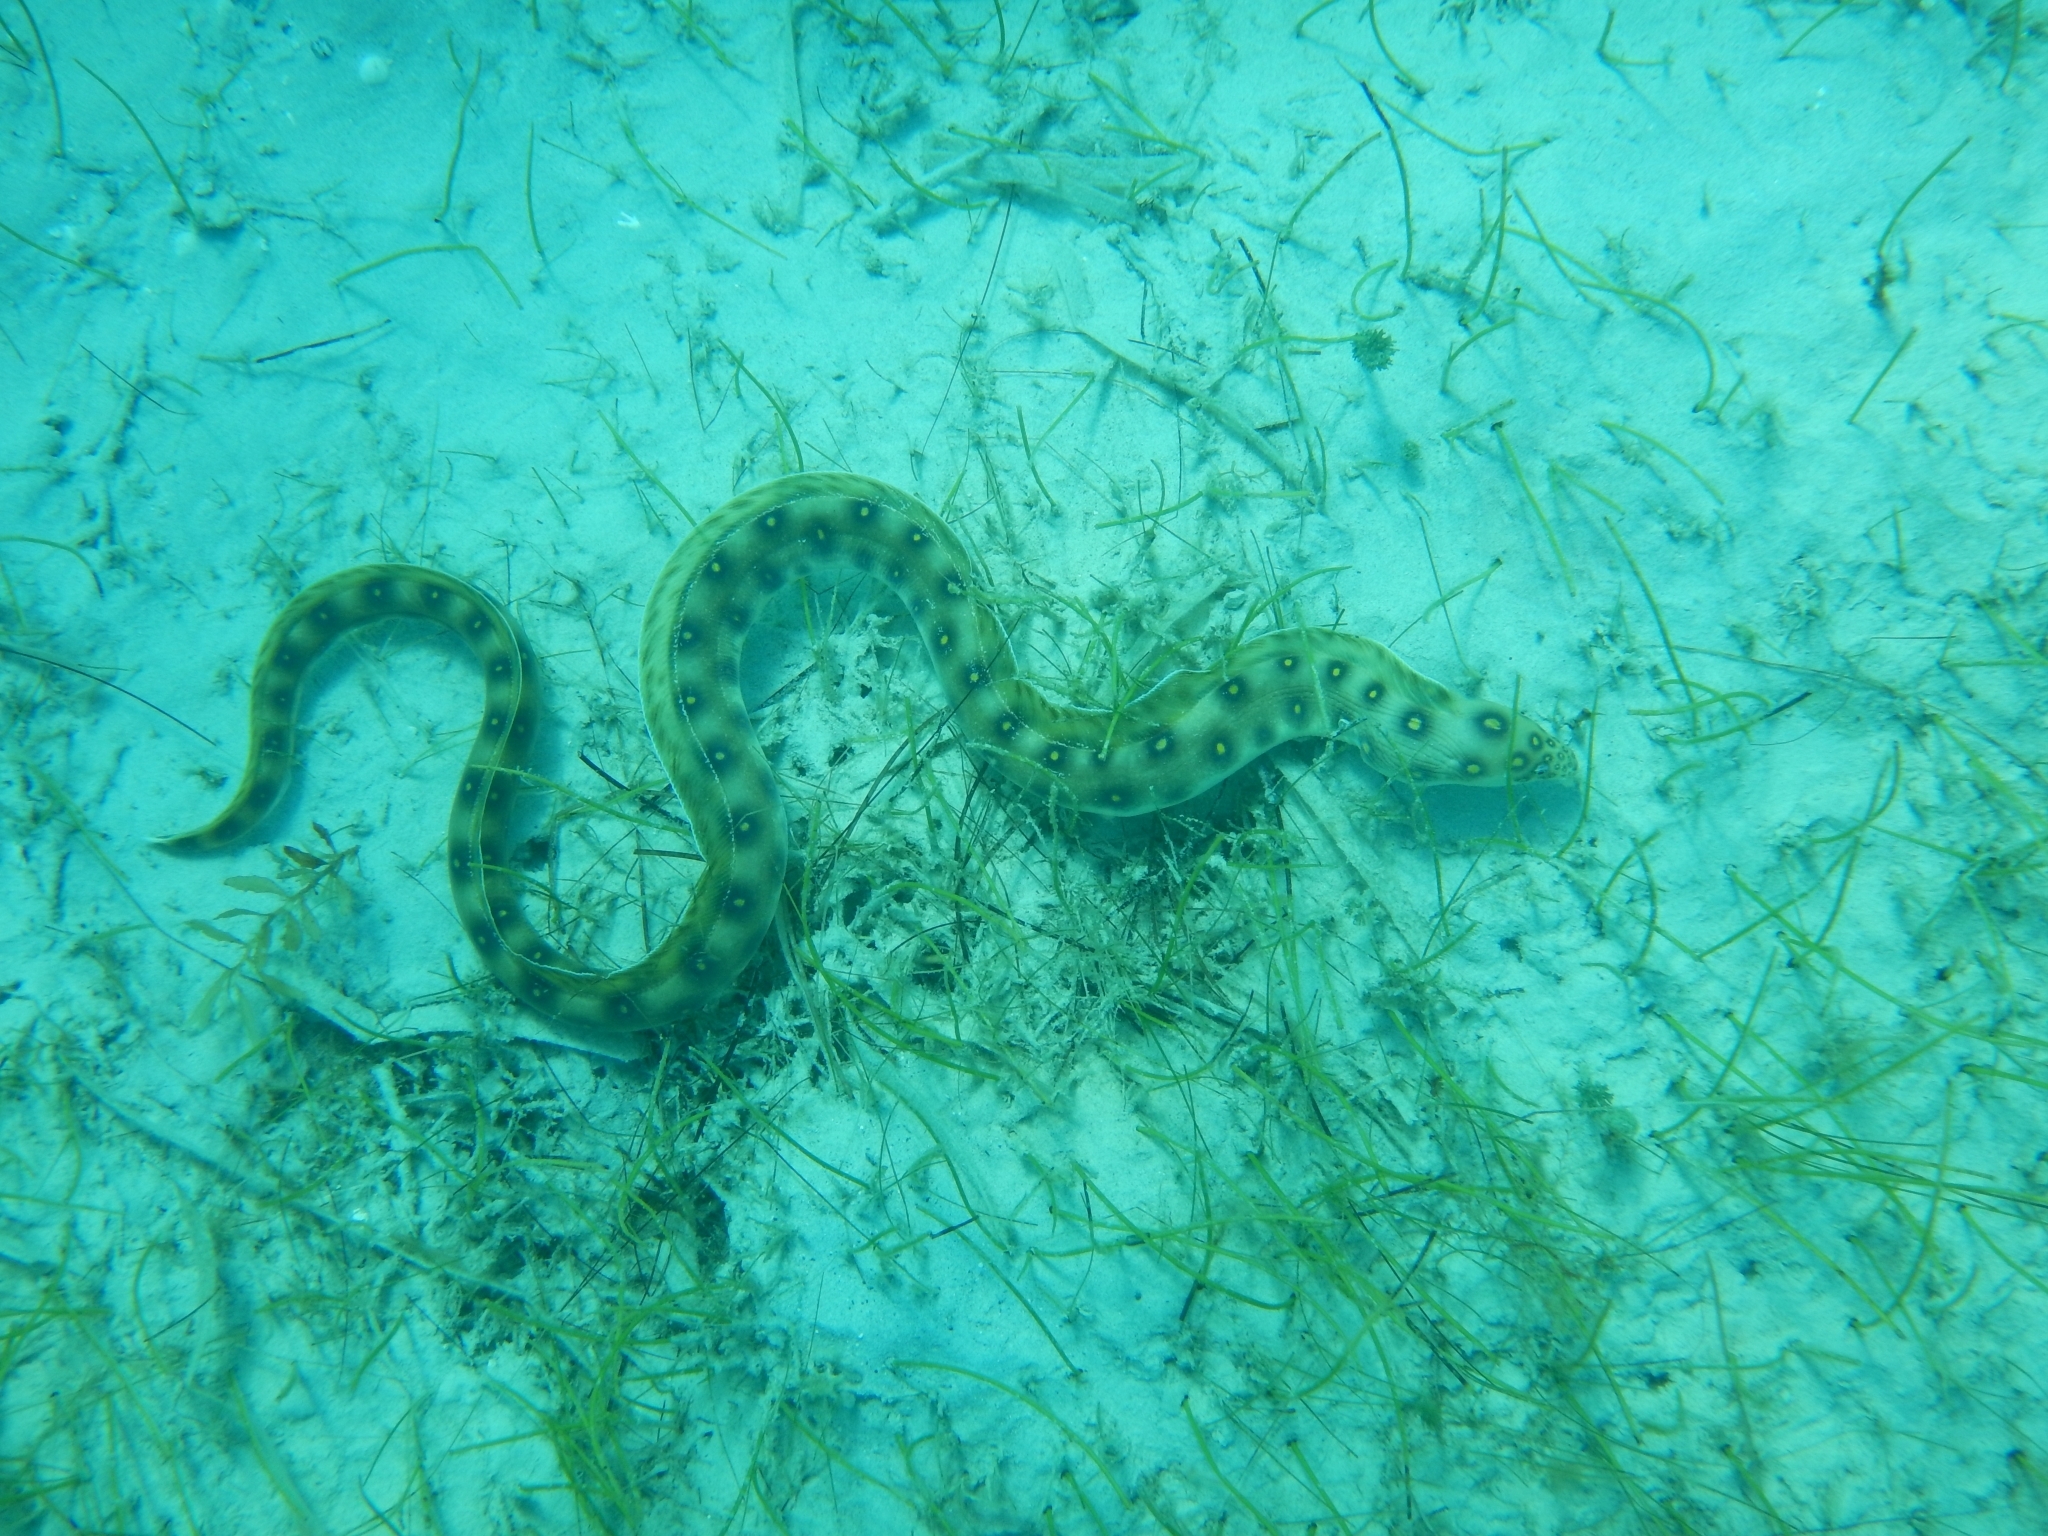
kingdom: Animalia
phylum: Chordata
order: Anguilliformes
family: Ophichthidae
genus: Myrichthys
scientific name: Myrichthys ocellatus
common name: Goldspotted eel
